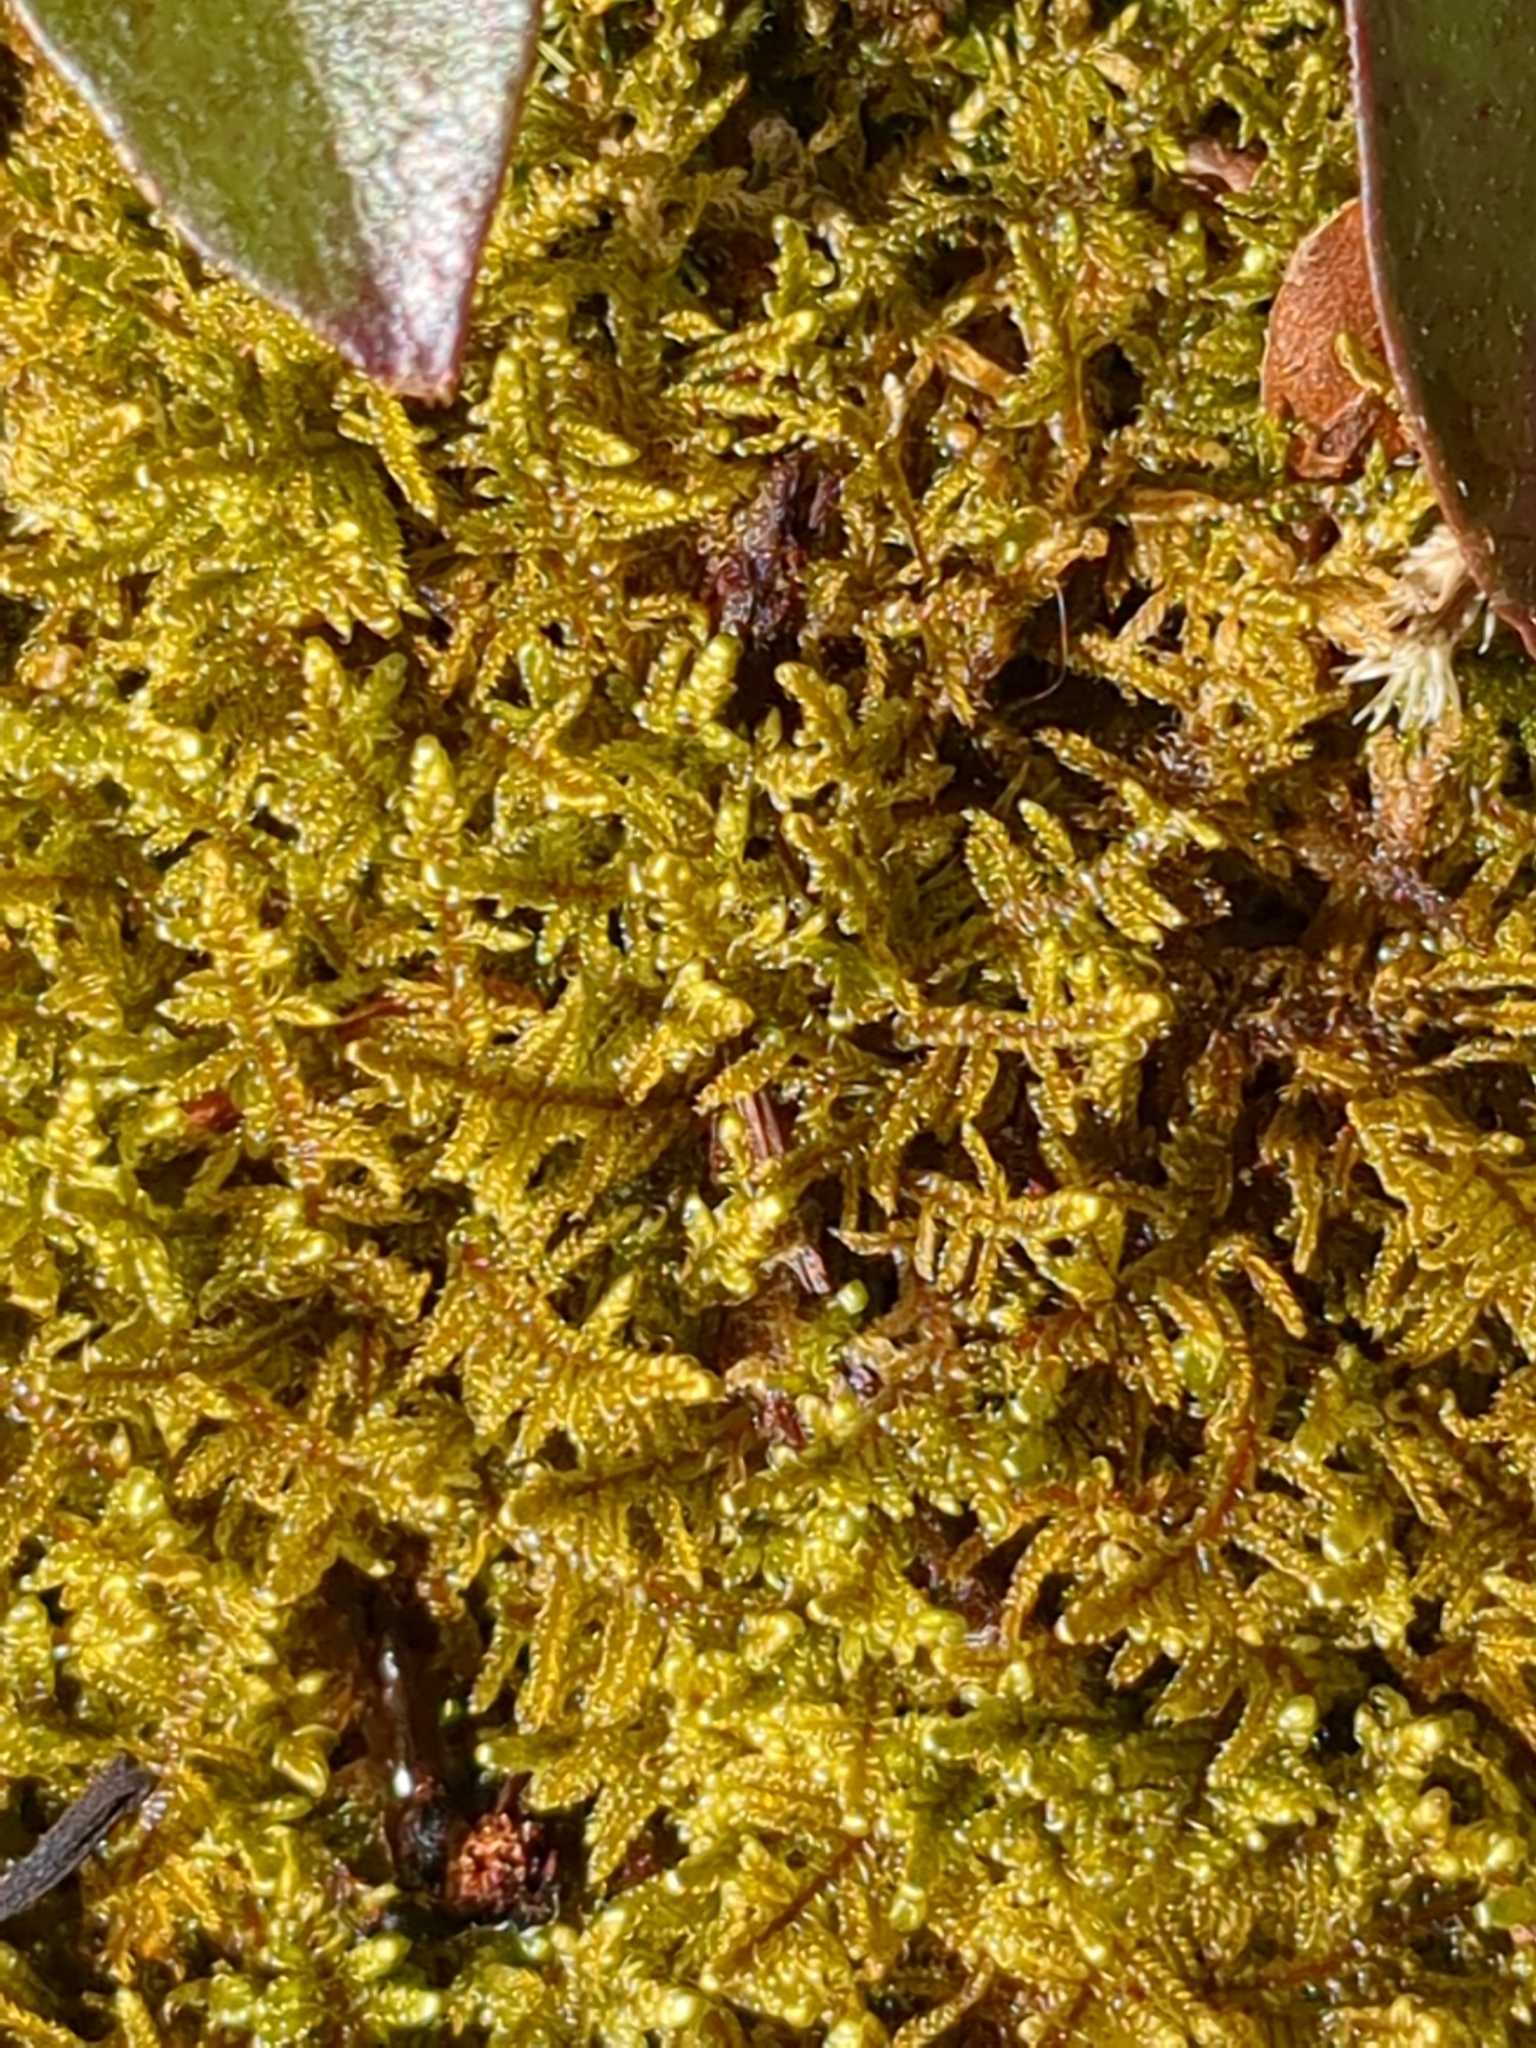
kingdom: Plantae
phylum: Bryophyta
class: Bryopsida
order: Hypnales
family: Callicladiaceae
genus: Callicladium
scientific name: Callicladium imponens
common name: Brocade moss
